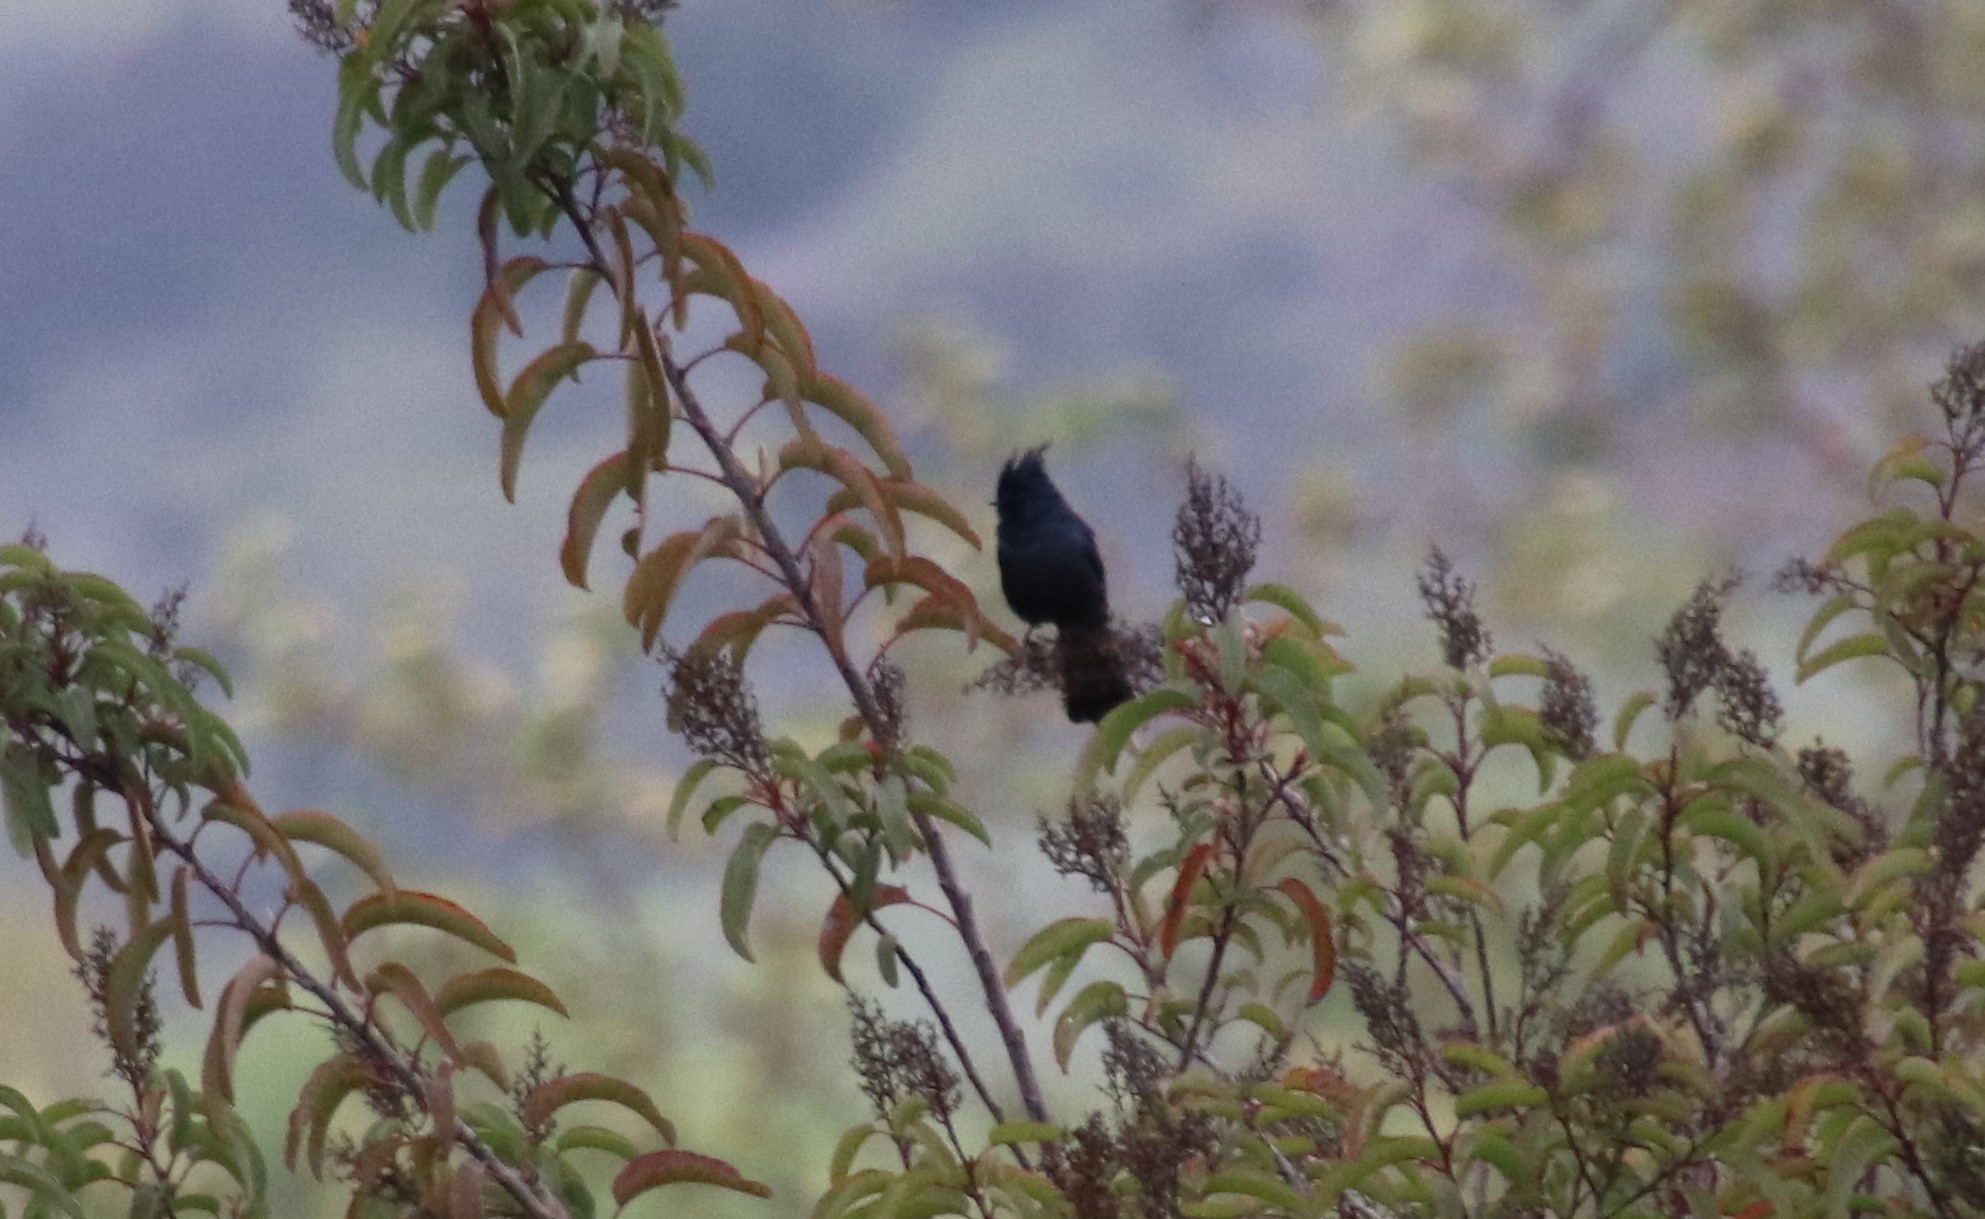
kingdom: Animalia
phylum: Chordata
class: Aves
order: Passeriformes
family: Ptilogonatidae
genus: Phainopepla
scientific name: Phainopepla nitens
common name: Phainopepla
